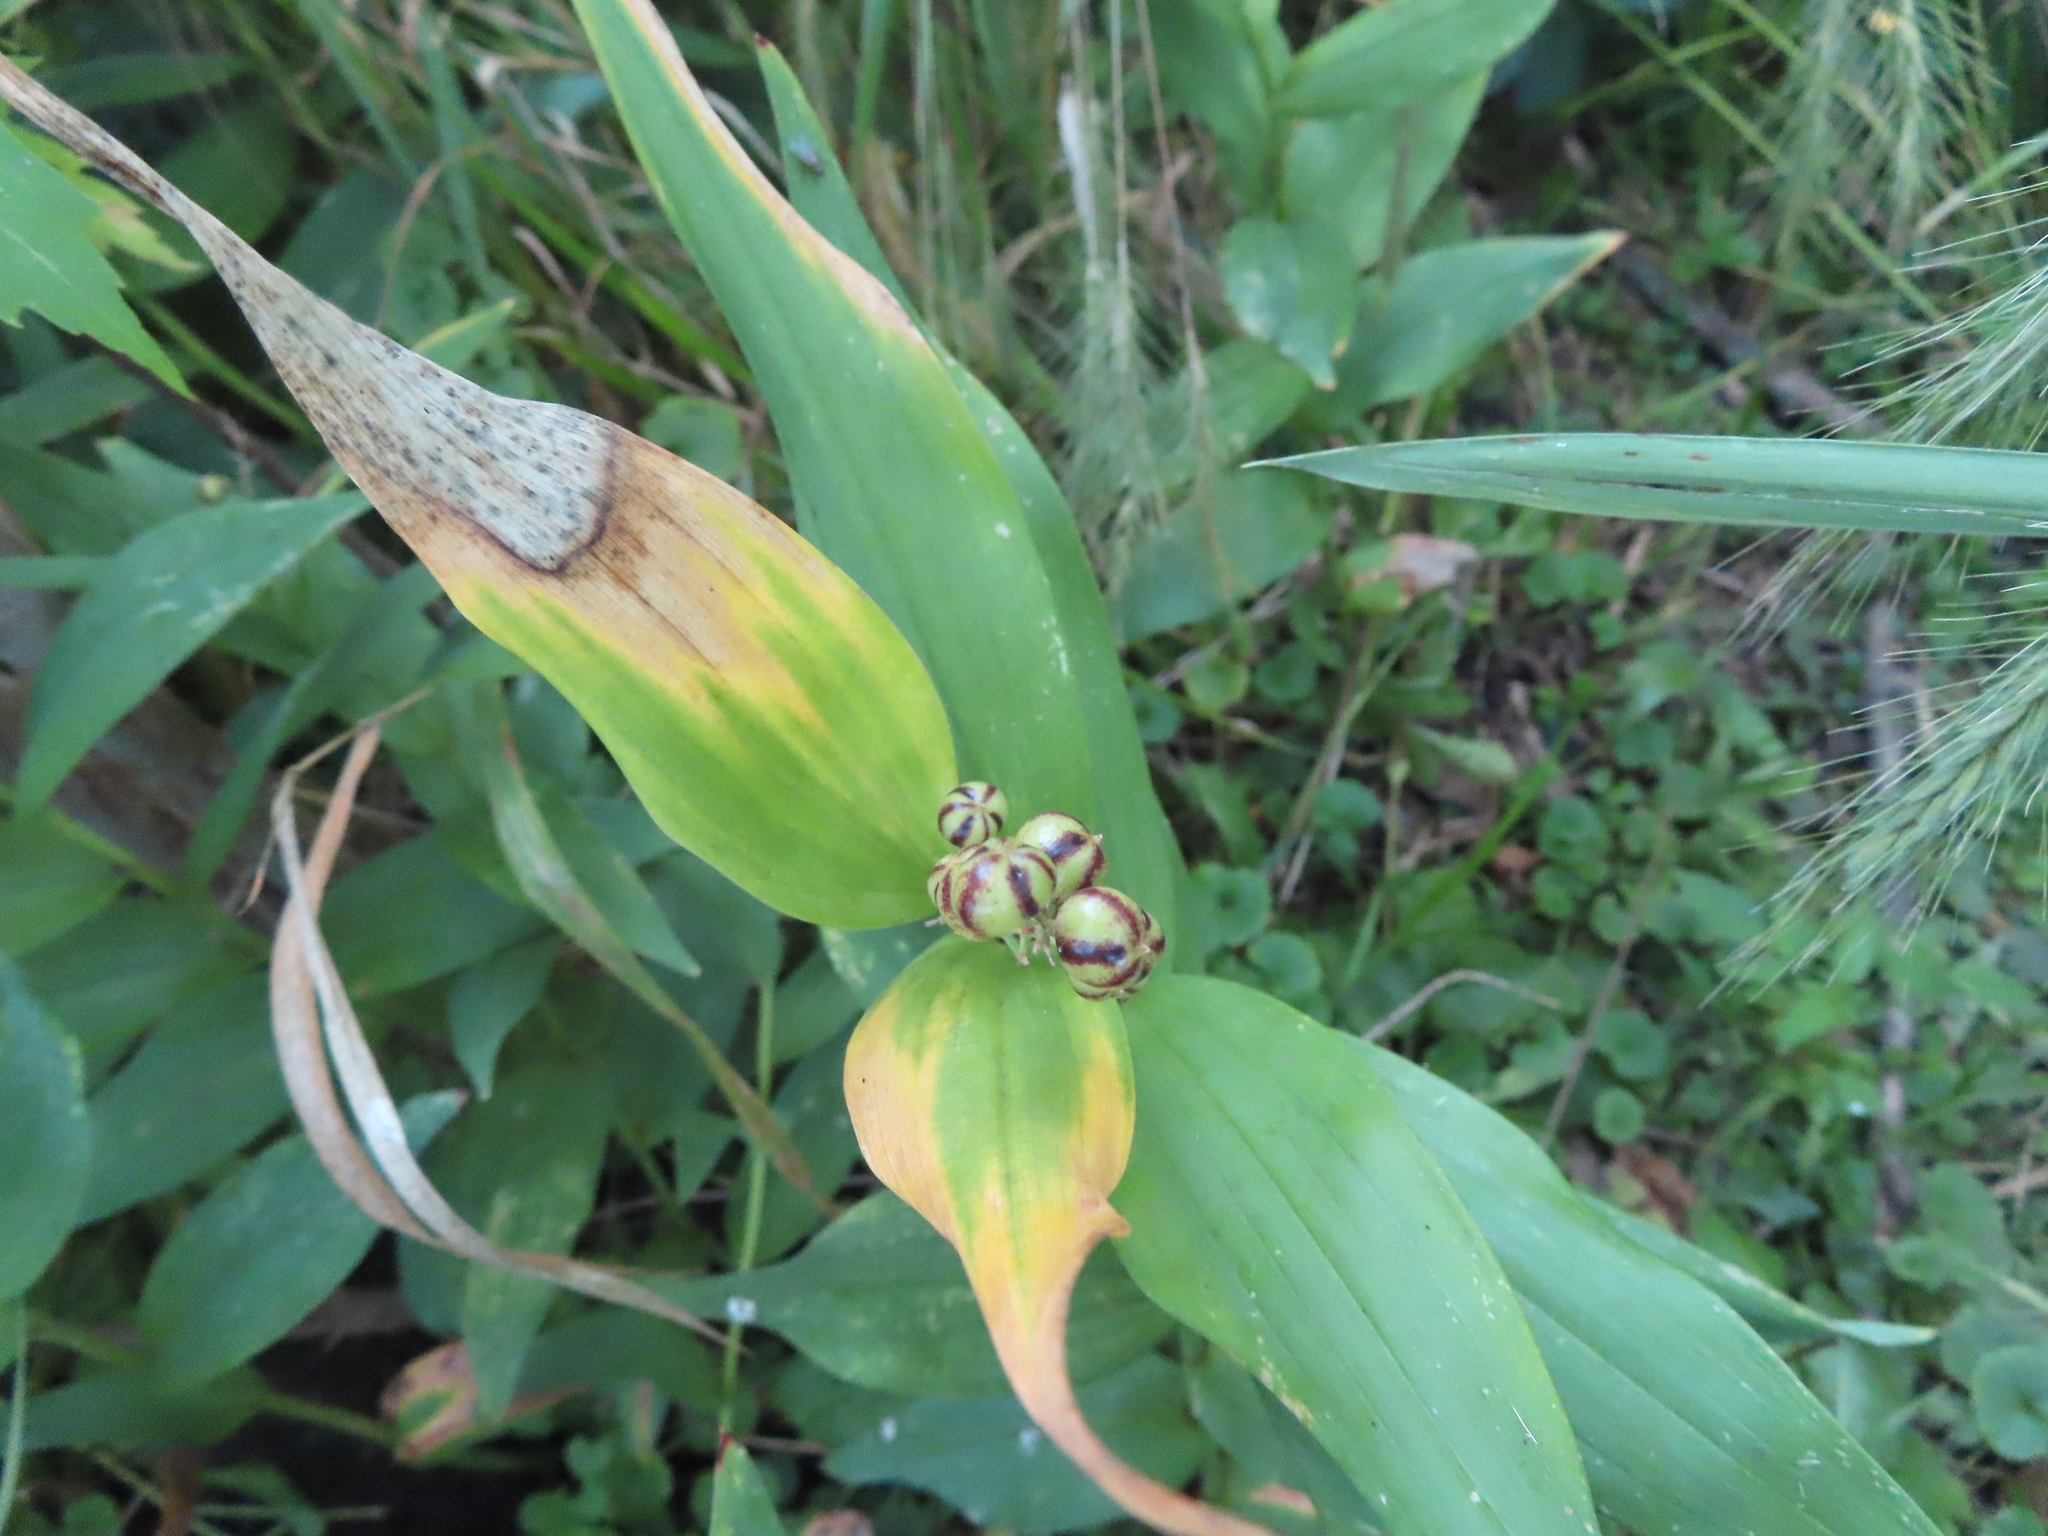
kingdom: Plantae
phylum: Tracheophyta
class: Liliopsida
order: Asparagales
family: Asparagaceae
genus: Maianthemum
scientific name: Maianthemum stellatum
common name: Little false solomon's seal
